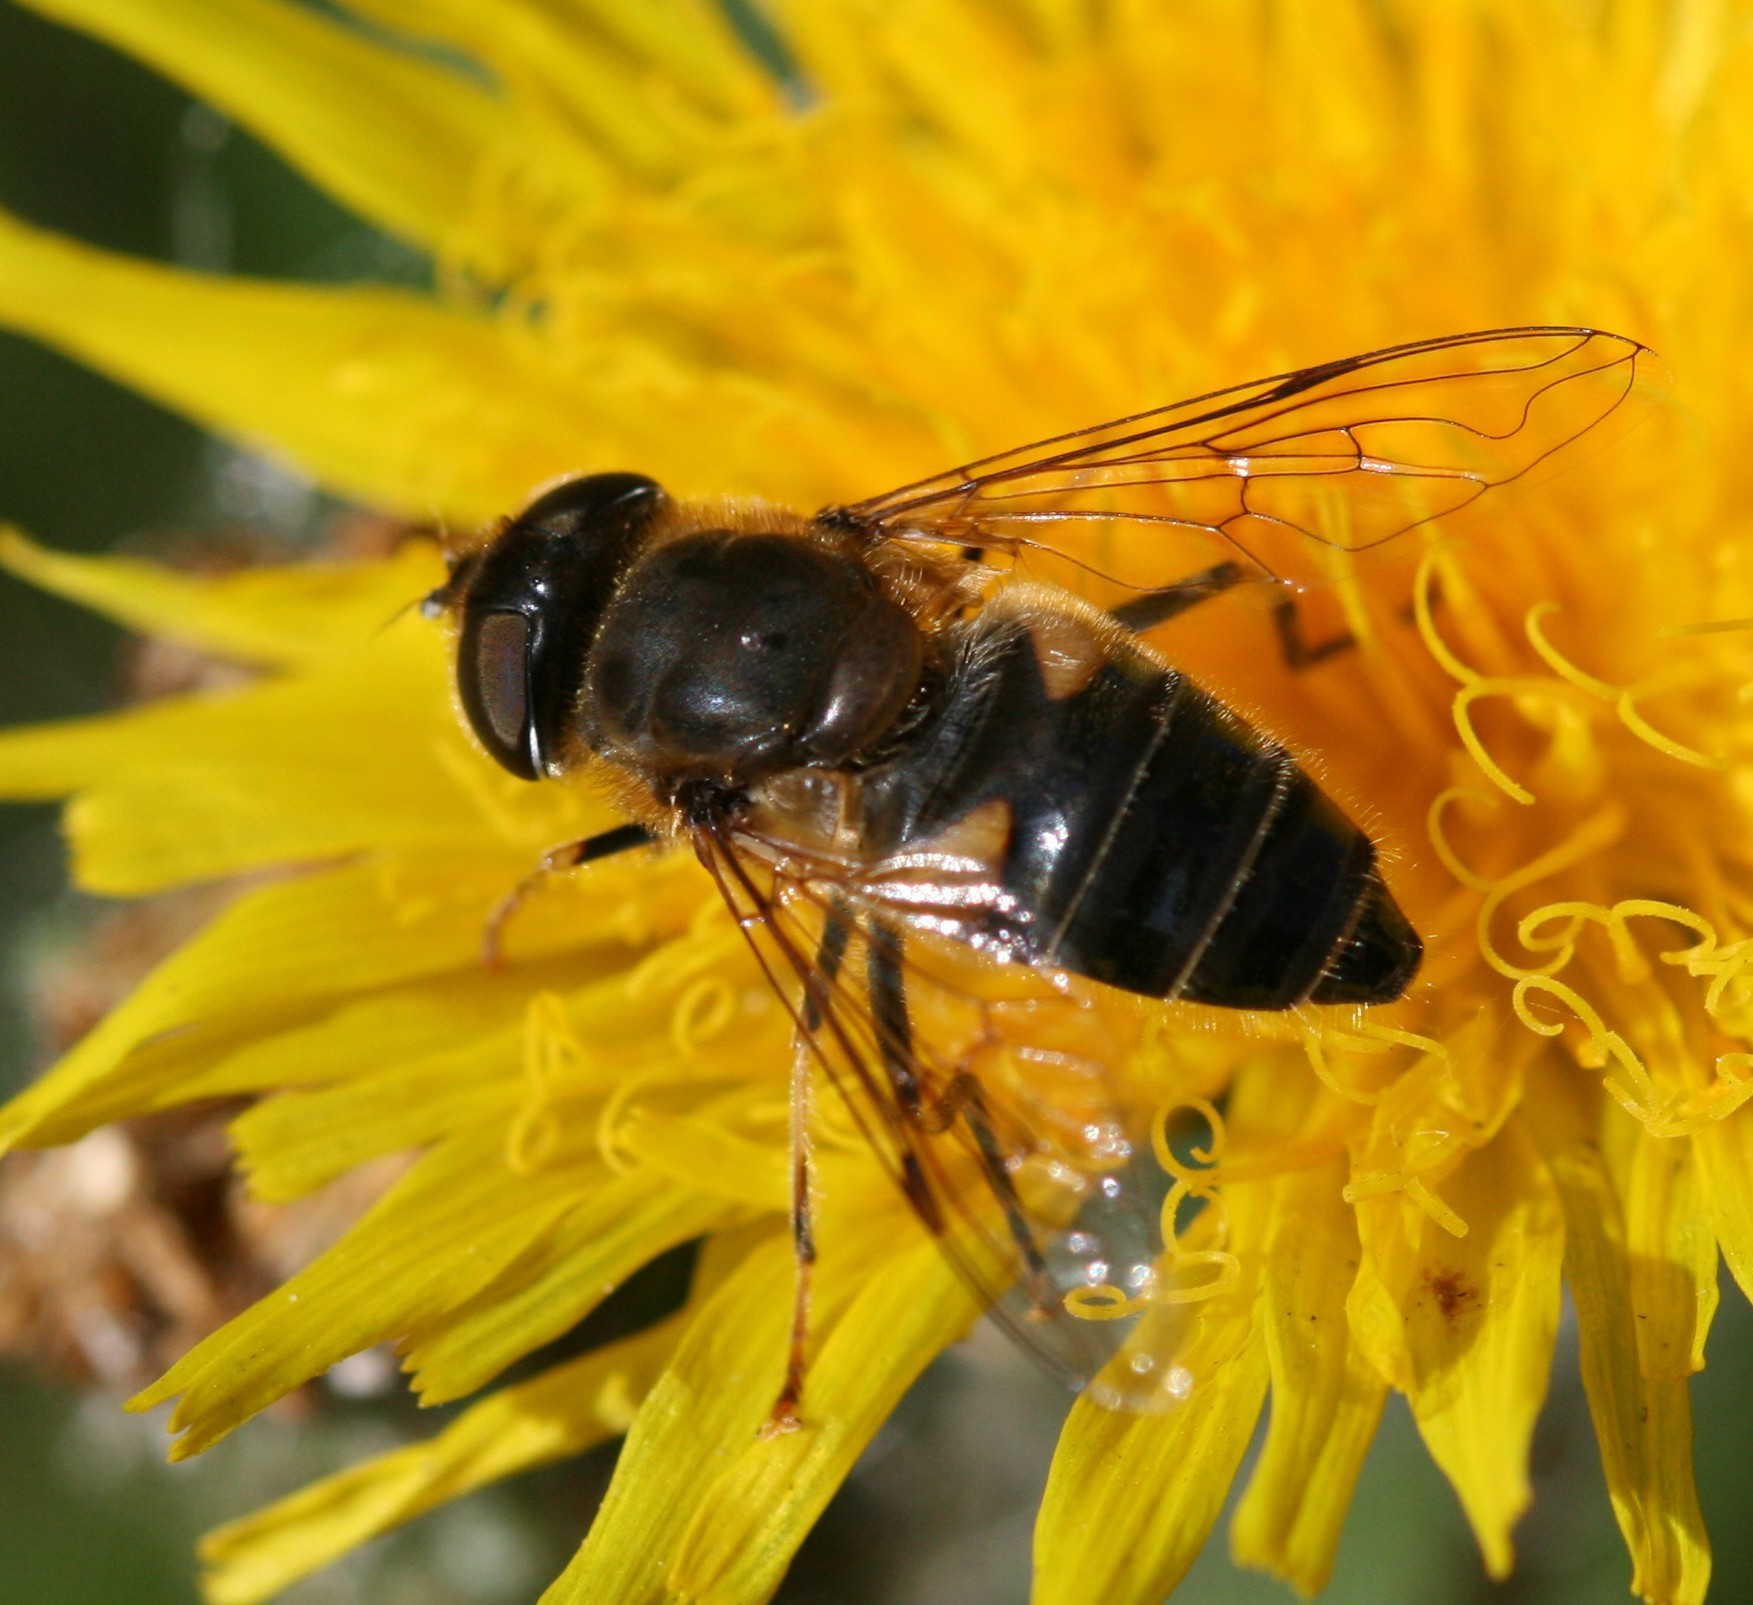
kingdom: Animalia
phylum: Arthropoda
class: Insecta
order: Diptera
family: Syrphidae
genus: Eristalis
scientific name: Eristalis pertinax
